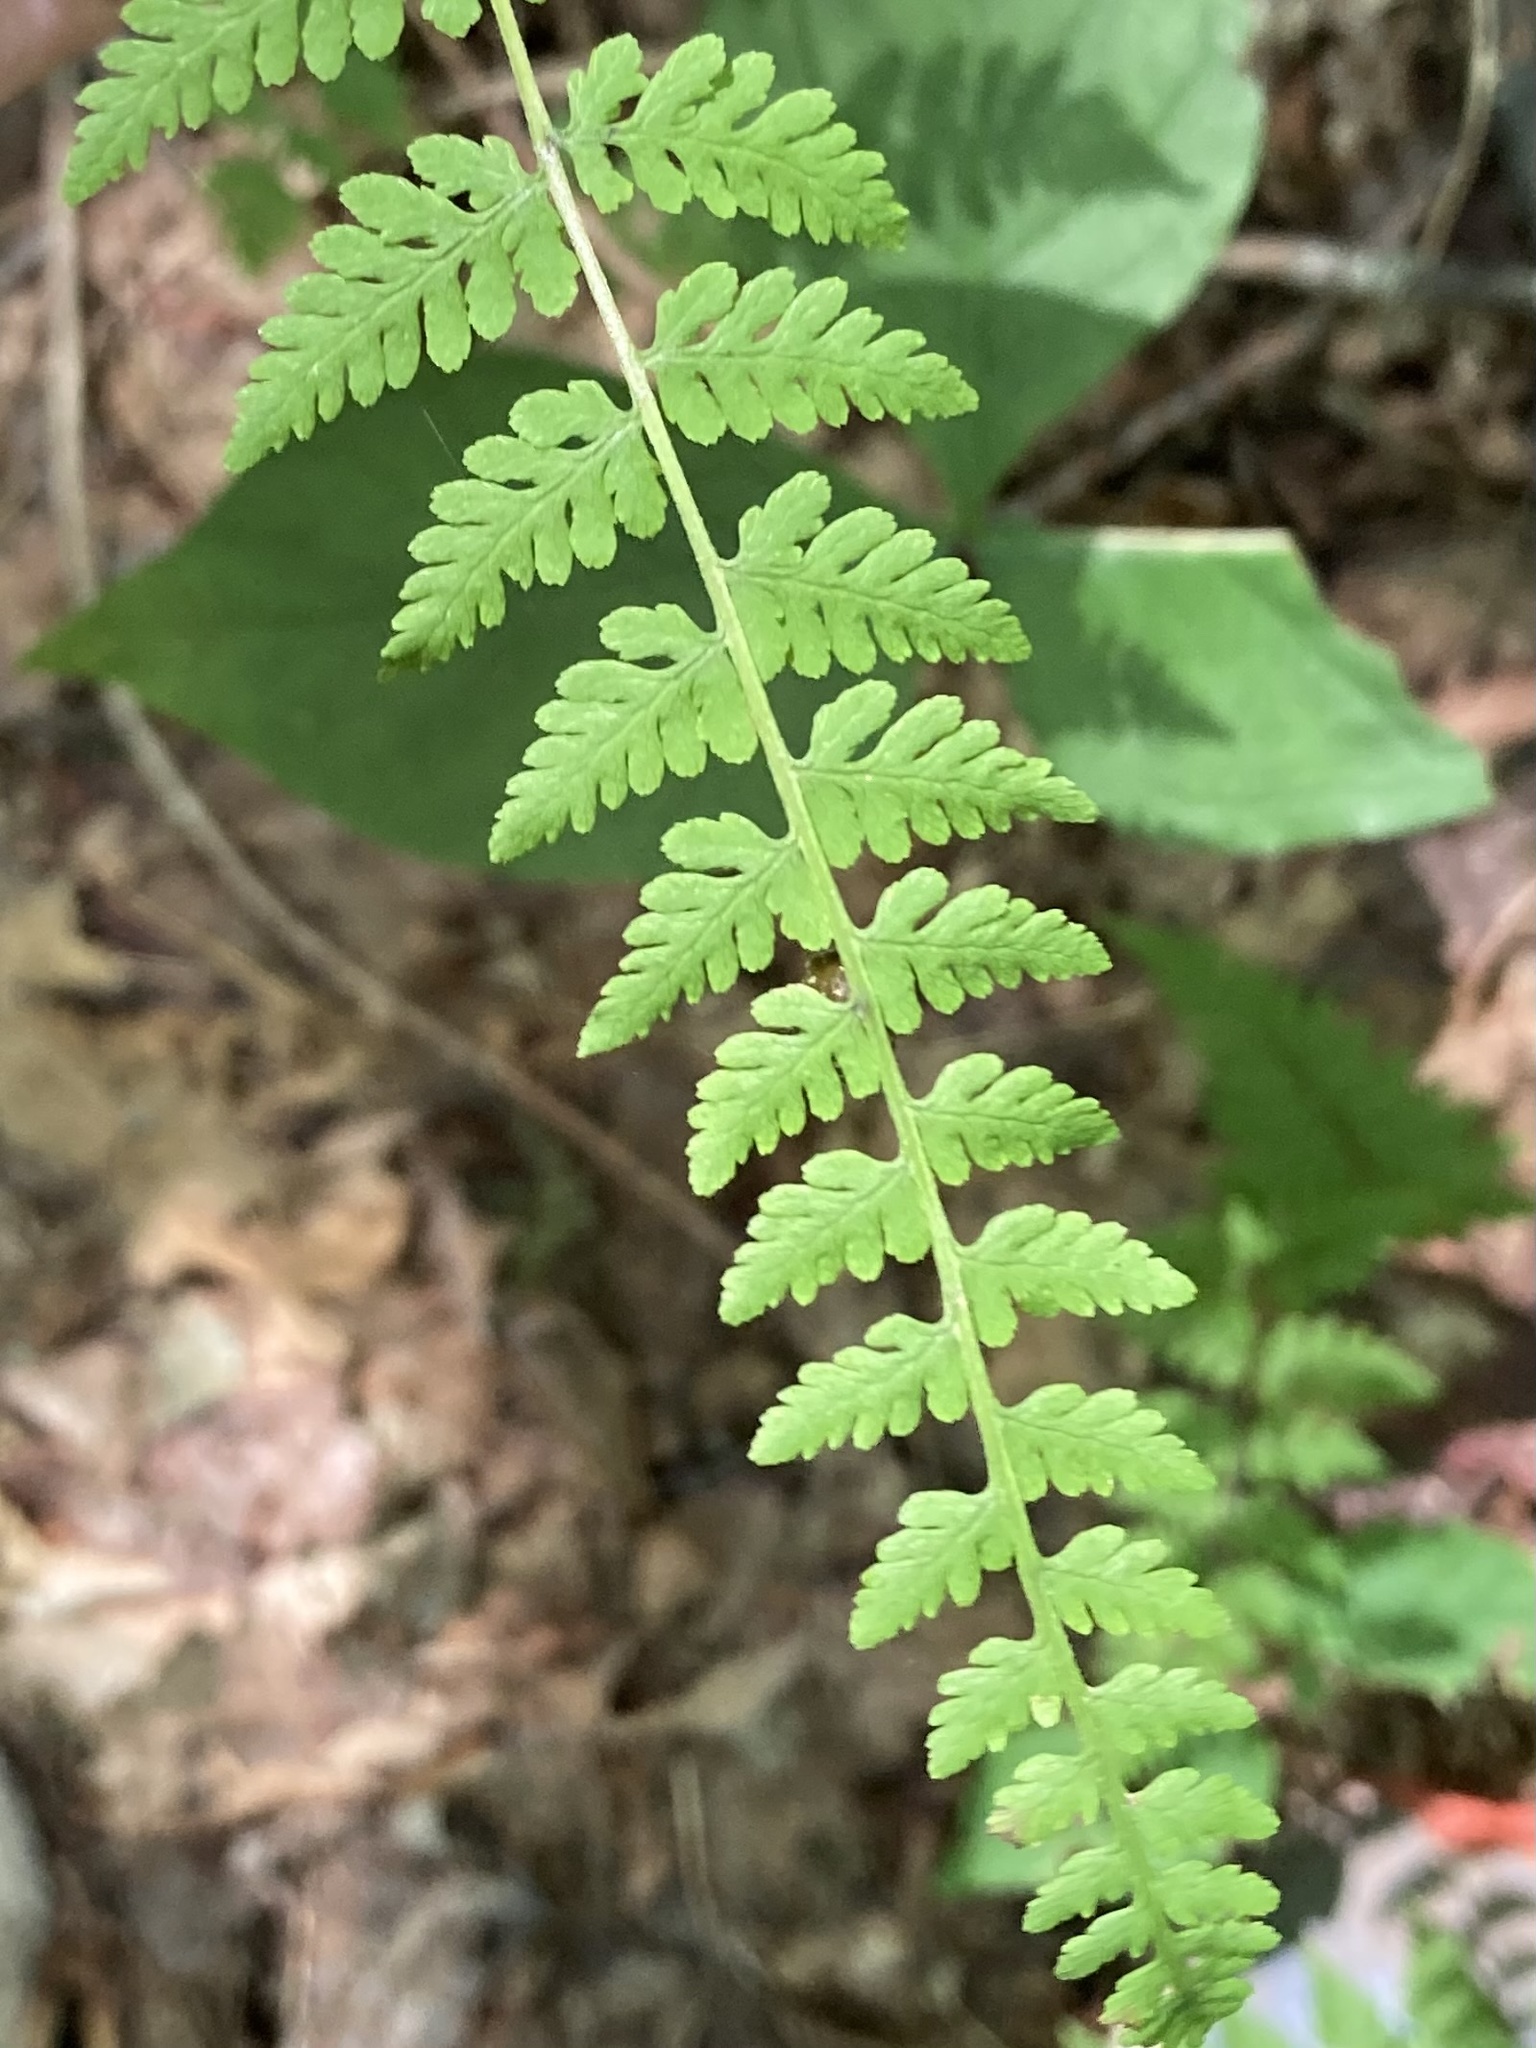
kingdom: Plantae
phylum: Tracheophyta
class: Polypodiopsida
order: Polypodiales
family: Cystopteridaceae
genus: Cystopteris
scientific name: Cystopteris bulbifera
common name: Bulblet bladder fern
